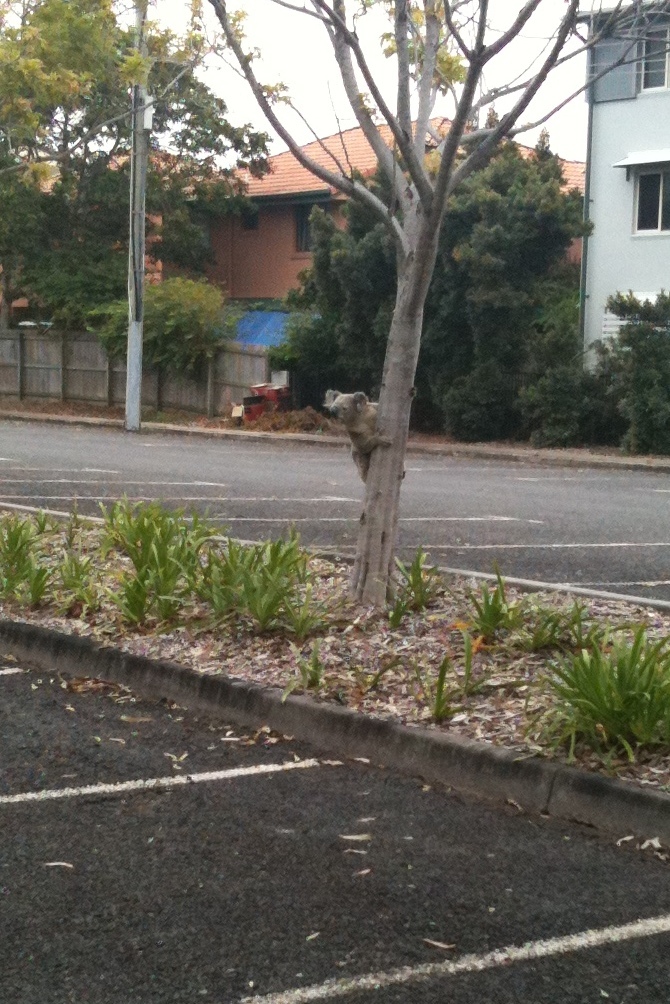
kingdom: Animalia
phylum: Chordata
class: Mammalia
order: Diprotodontia
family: Phascolarctidae
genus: Phascolarctos
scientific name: Phascolarctos cinereus
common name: Koala
